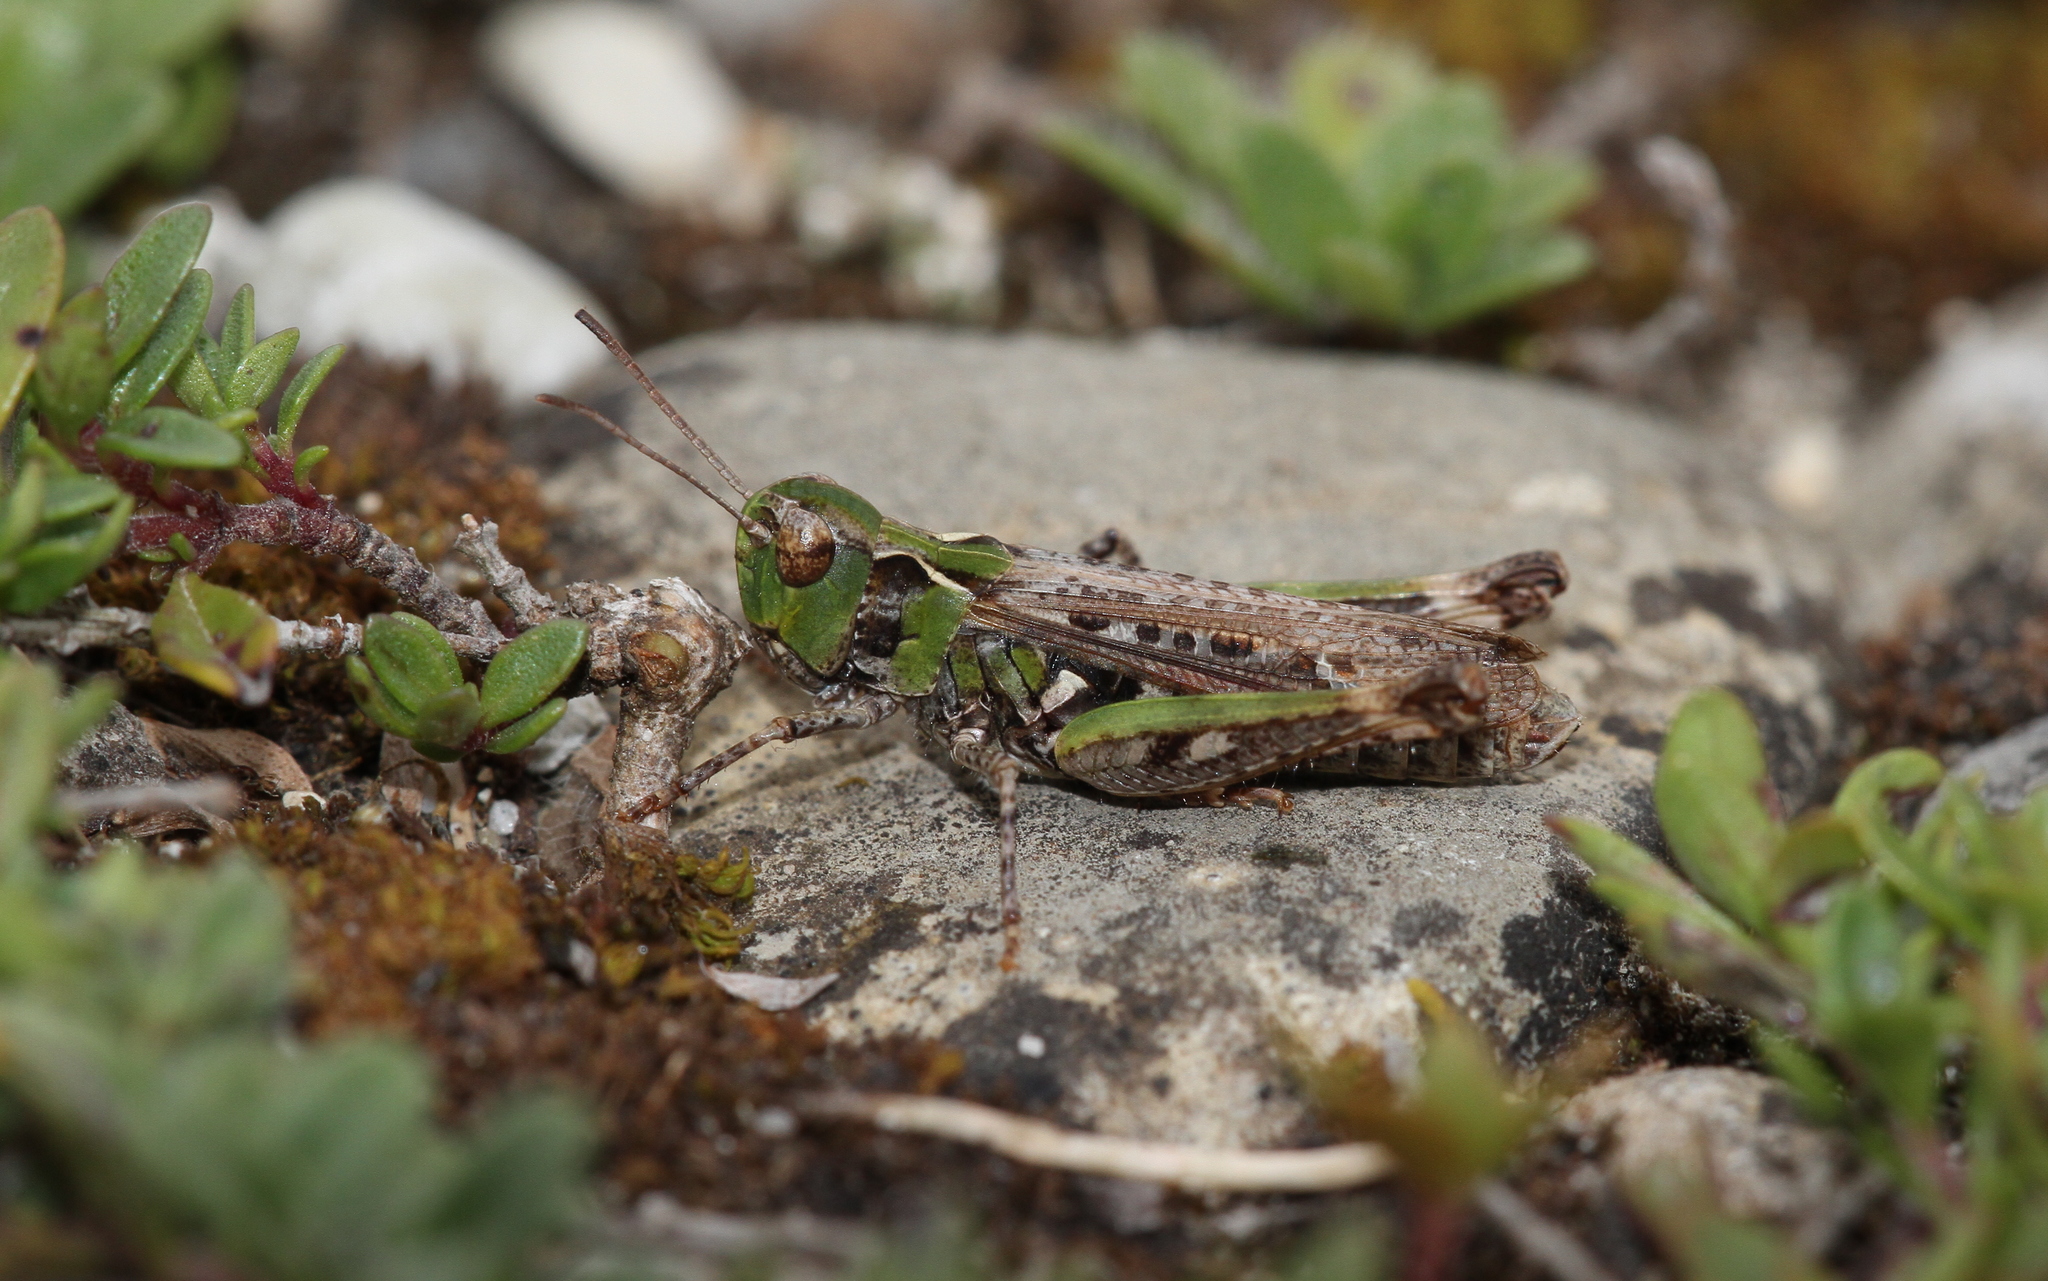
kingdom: Animalia
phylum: Arthropoda
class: Insecta
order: Orthoptera
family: Acrididae
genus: Myrmeleotettix
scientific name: Myrmeleotettix maculatus
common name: Mottled grasshopper
